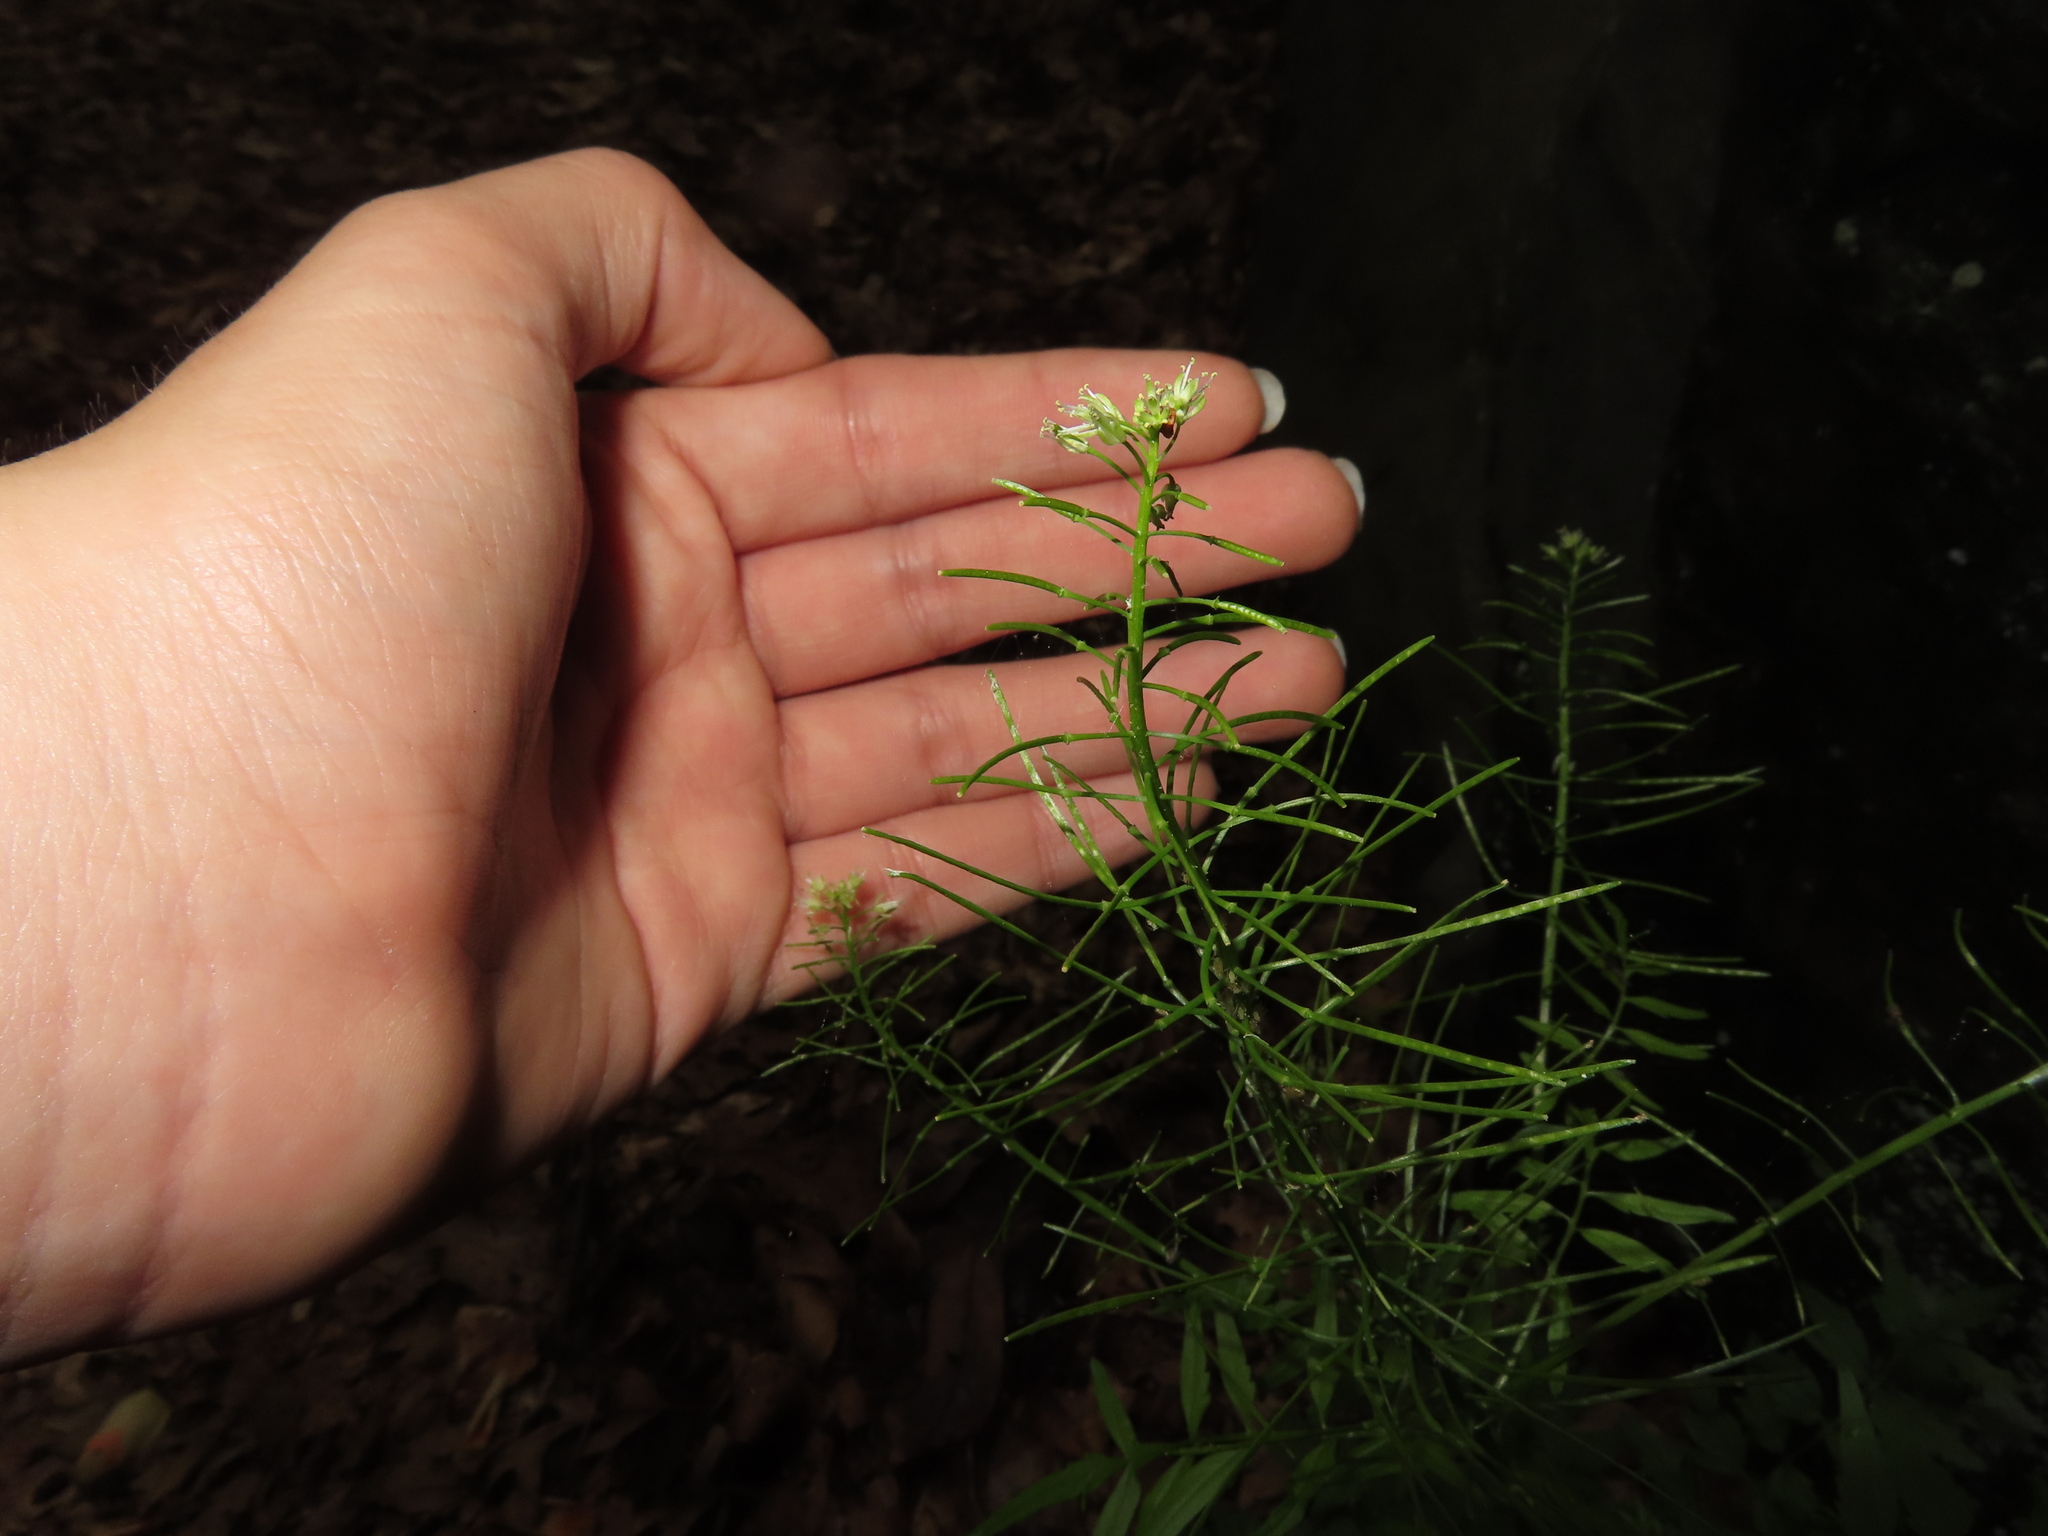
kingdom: Plantae
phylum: Tracheophyta
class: Magnoliopsida
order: Brassicales
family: Brassicaceae
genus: Cardamine
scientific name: Cardamine impatiens
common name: Narrow-leaved bitter-cress
